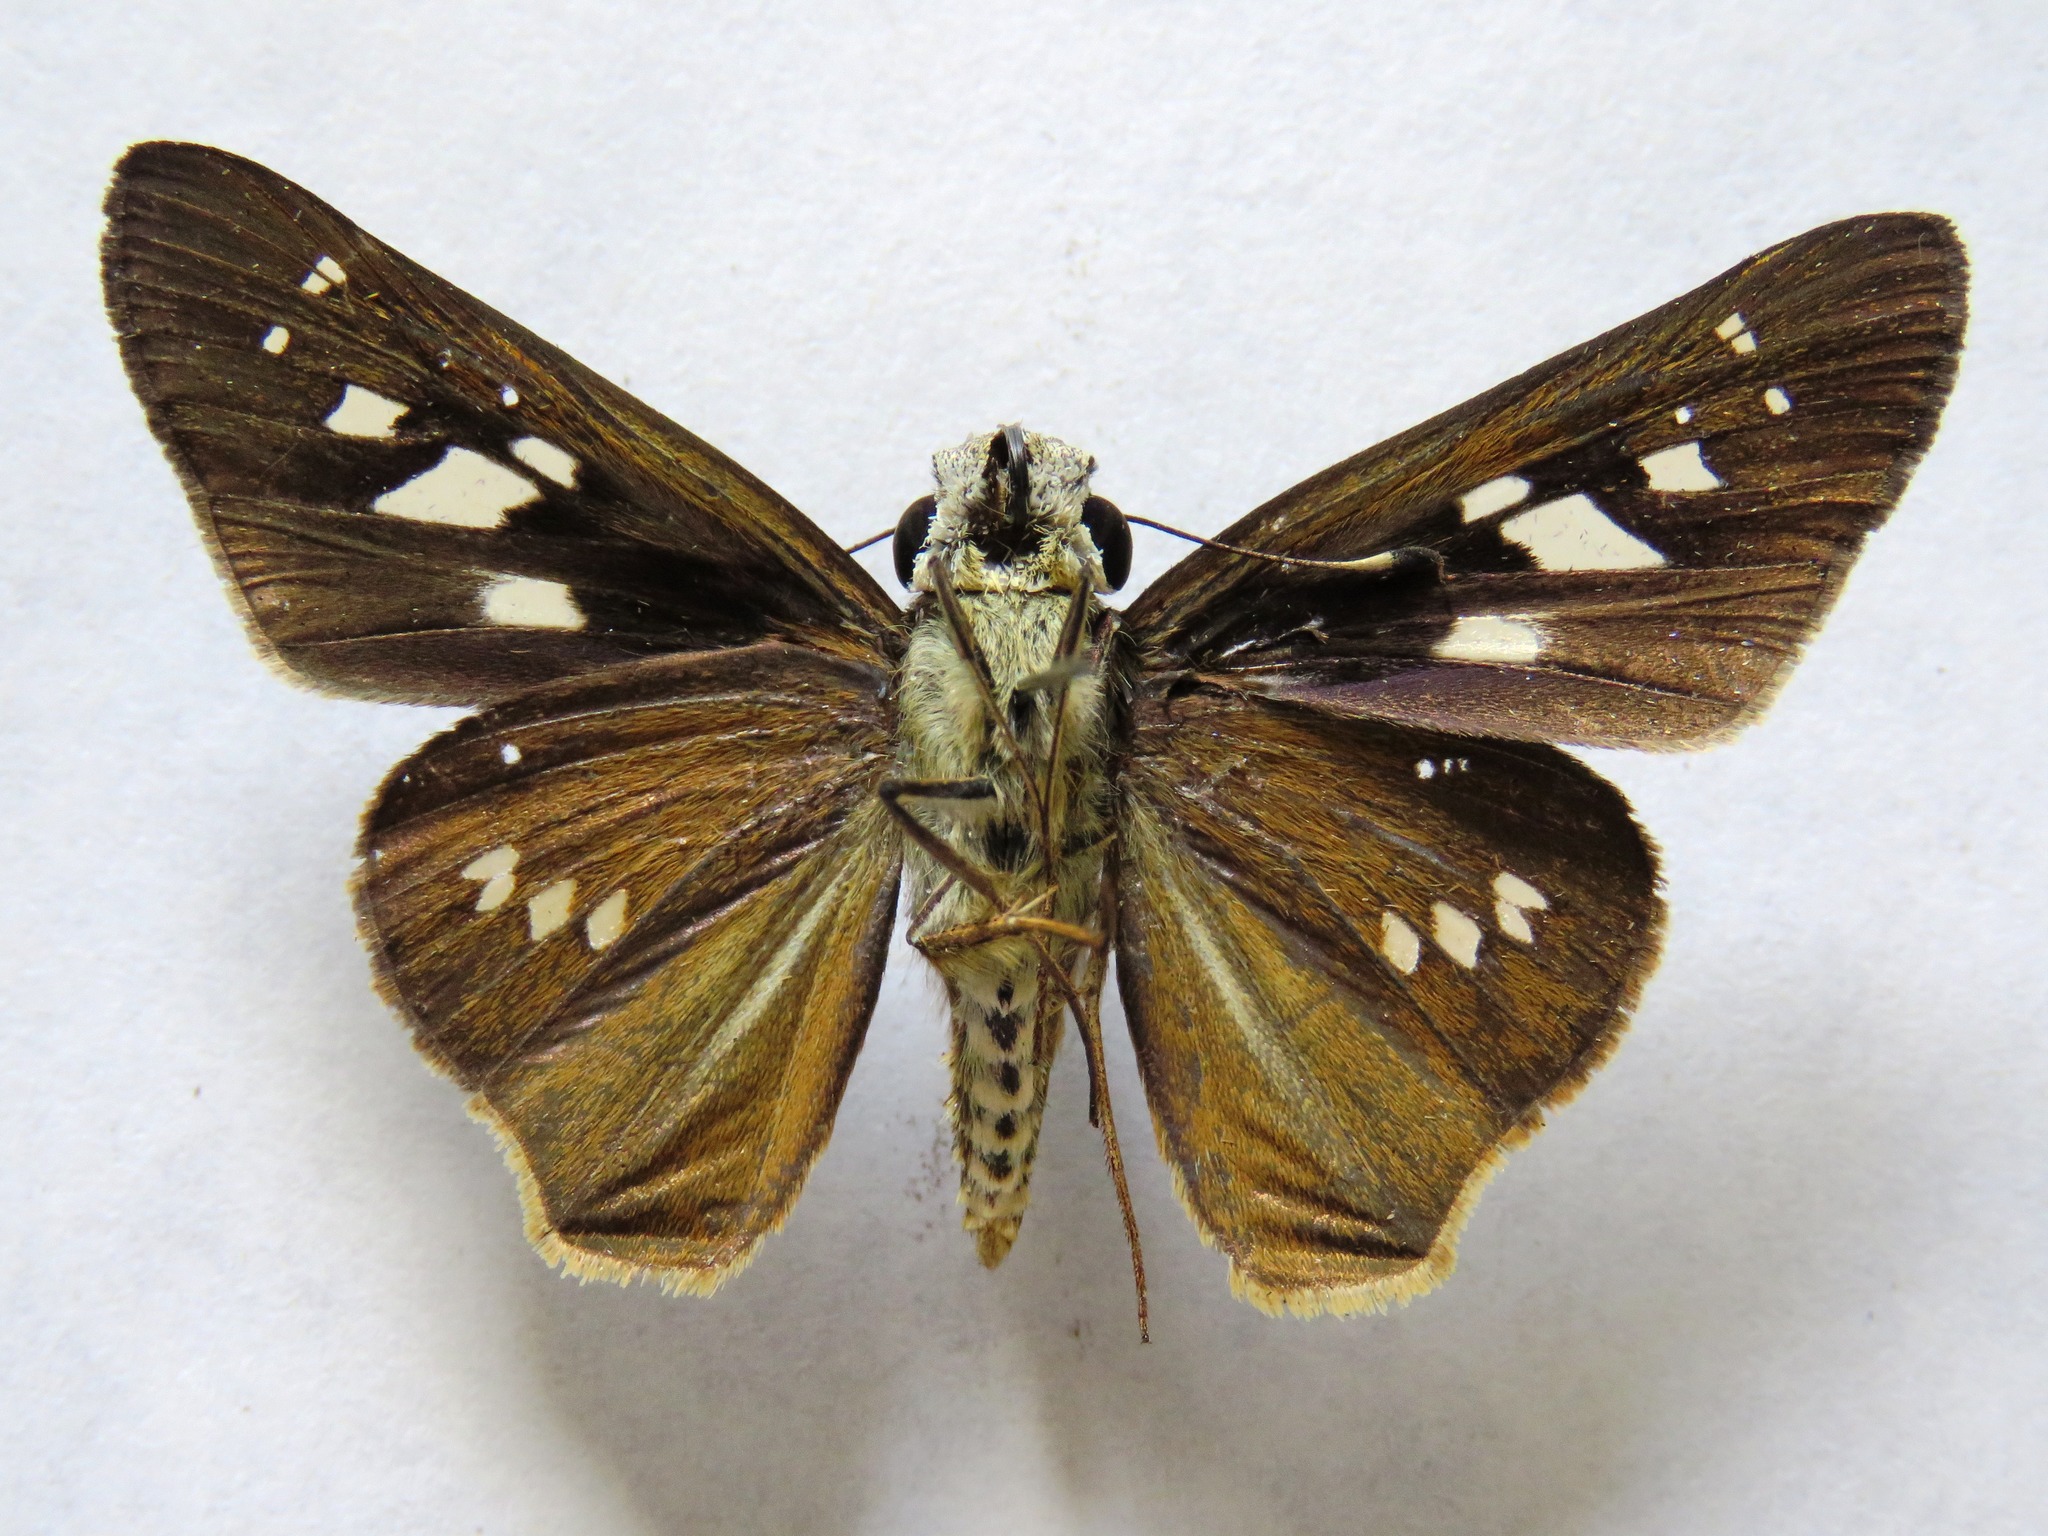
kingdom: Animalia
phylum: Arthropoda
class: Insecta
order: Lepidoptera
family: Hesperiidae
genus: Calpodes
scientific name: Calpodes ethlius
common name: Brazilian skipper
